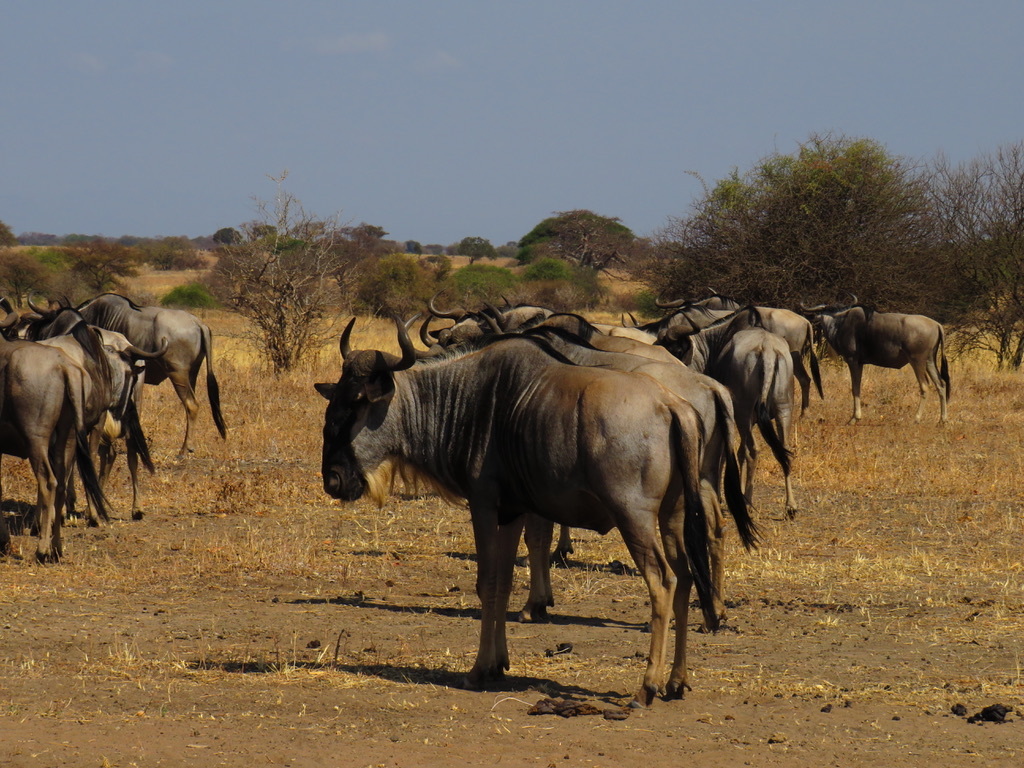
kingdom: Animalia
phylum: Chordata
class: Mammalia
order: Artiodactyla
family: Bovidae
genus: Connochaetes
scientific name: Connochaetes taurinus
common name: Blue wildebeest
